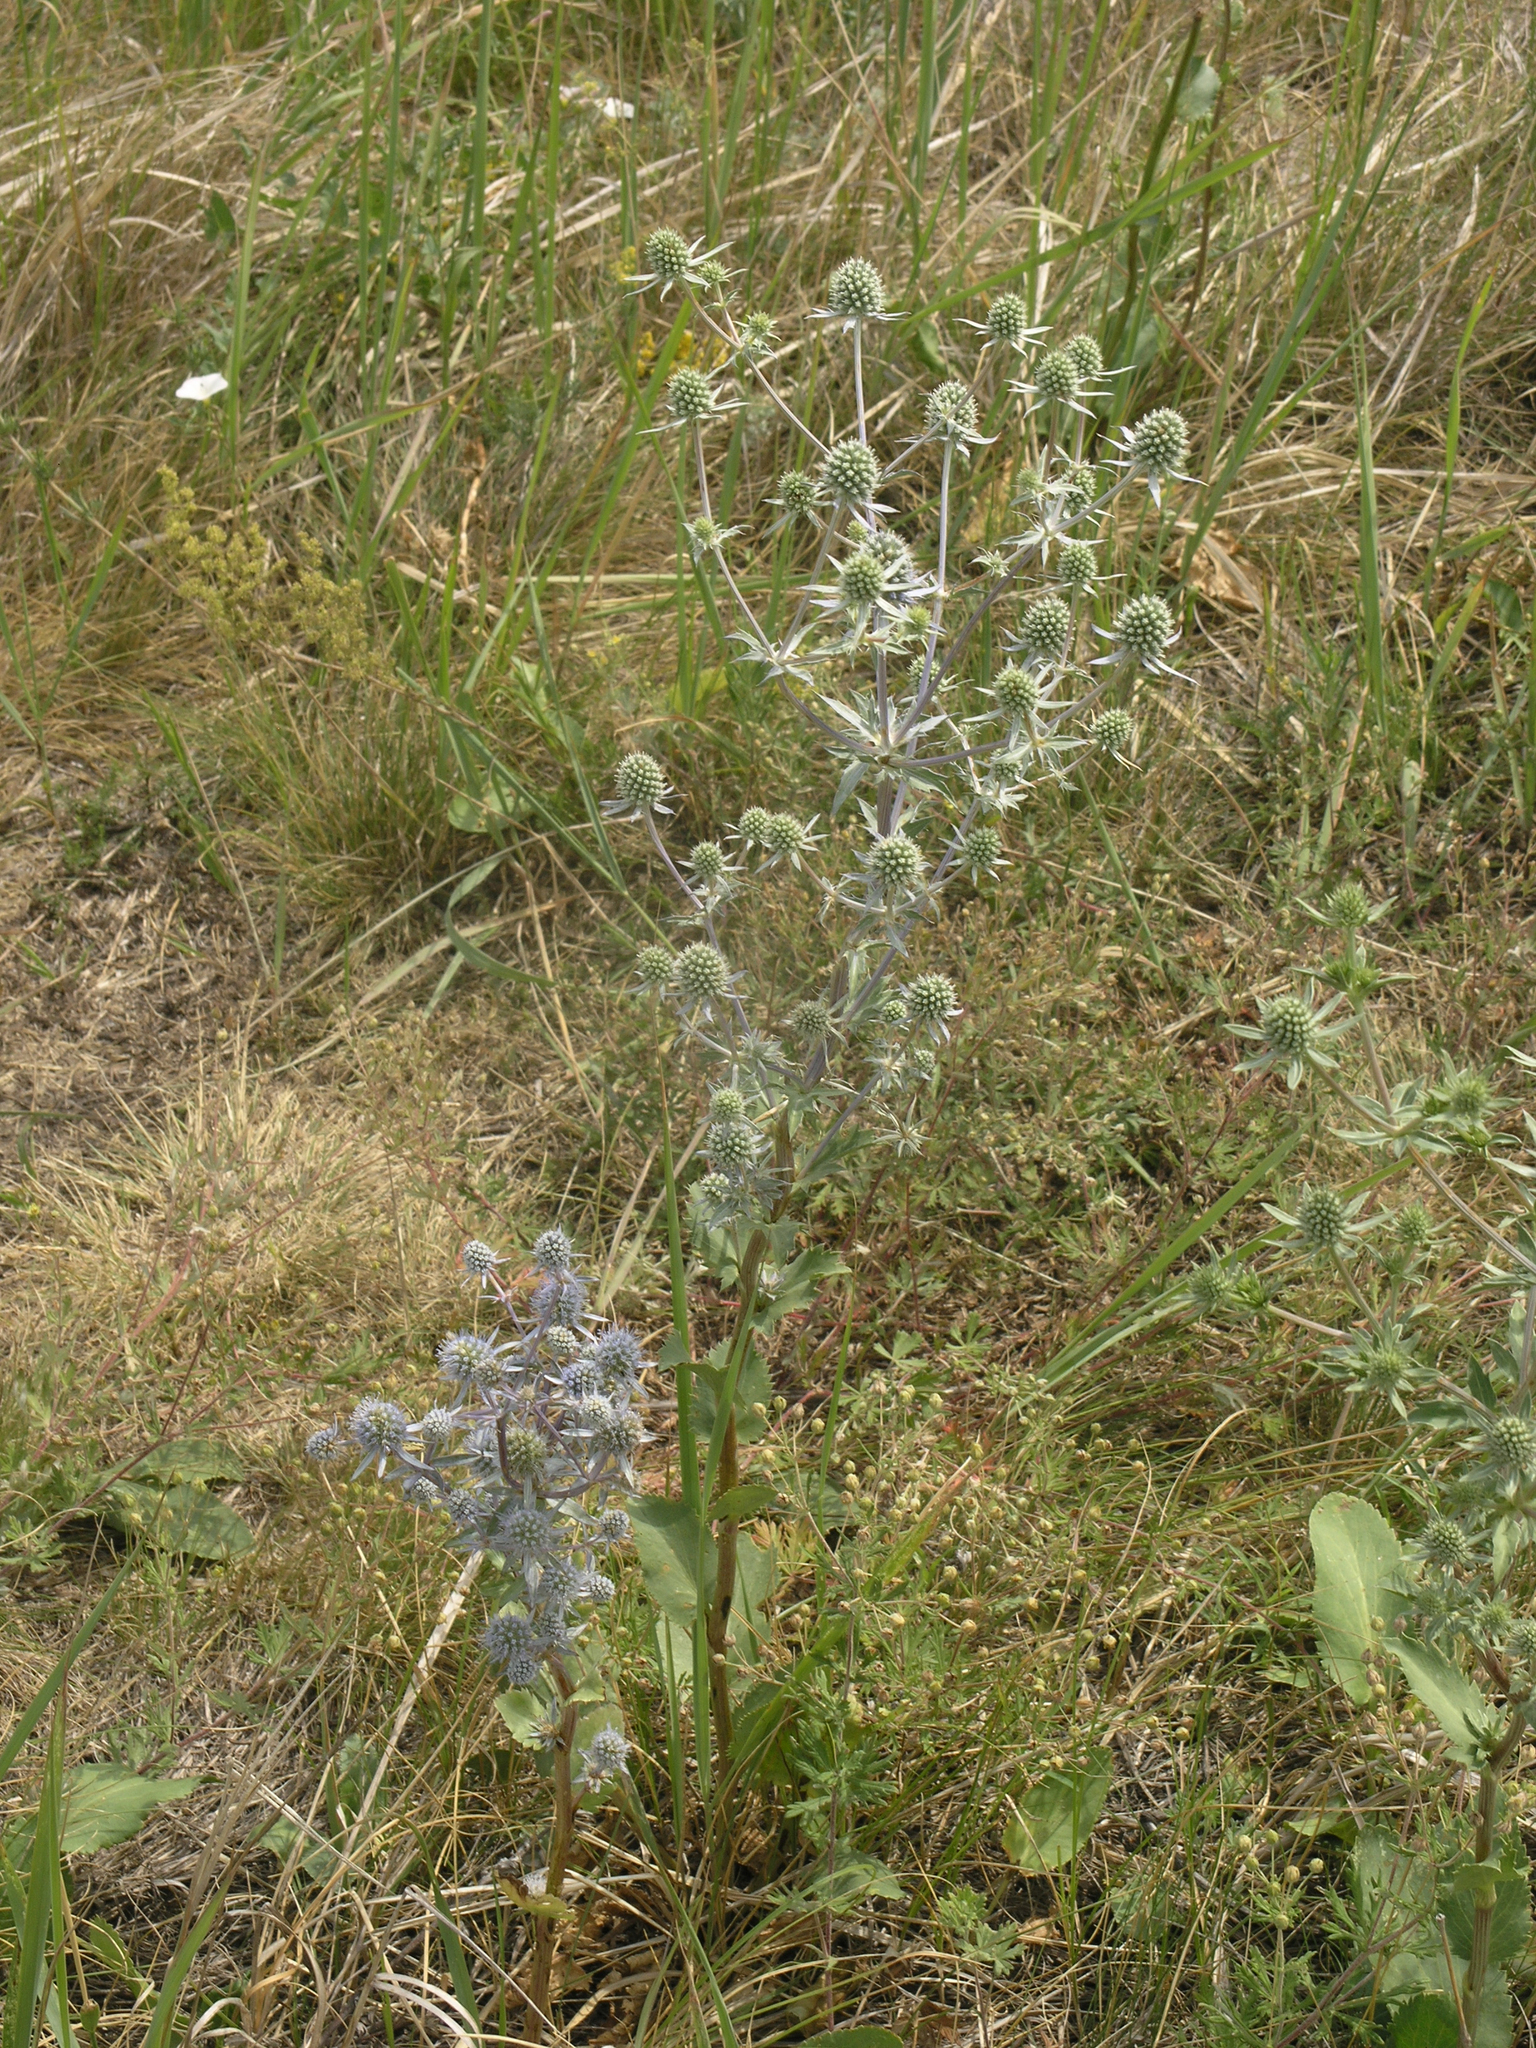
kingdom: Plantae
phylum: Tracheophyta
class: Magnoliopsida
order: Apiales
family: Apiaceae
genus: Eryngium
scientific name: Eryngium planum
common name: Blue eryngo
